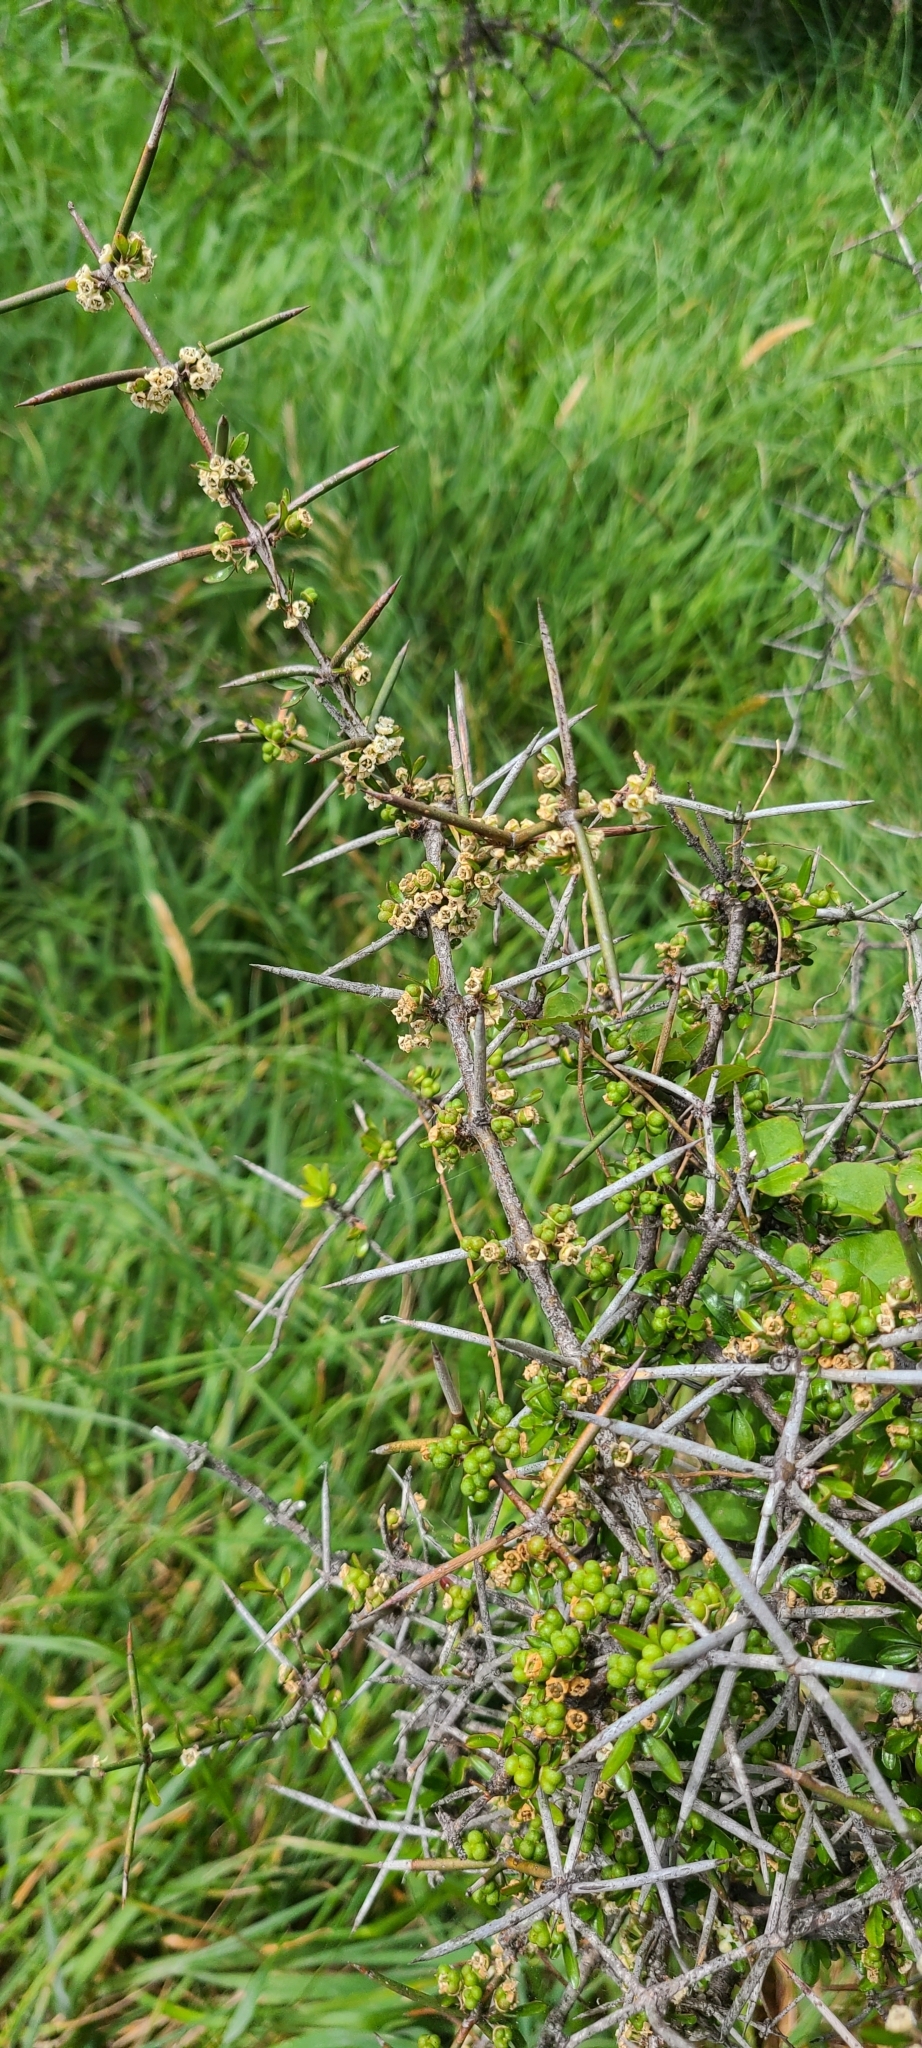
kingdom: Plantae
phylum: Tracheophyta
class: Magnoliopsida
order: Rosales
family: Rhamnaceae
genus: Discaria
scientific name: Discaria toumatou
